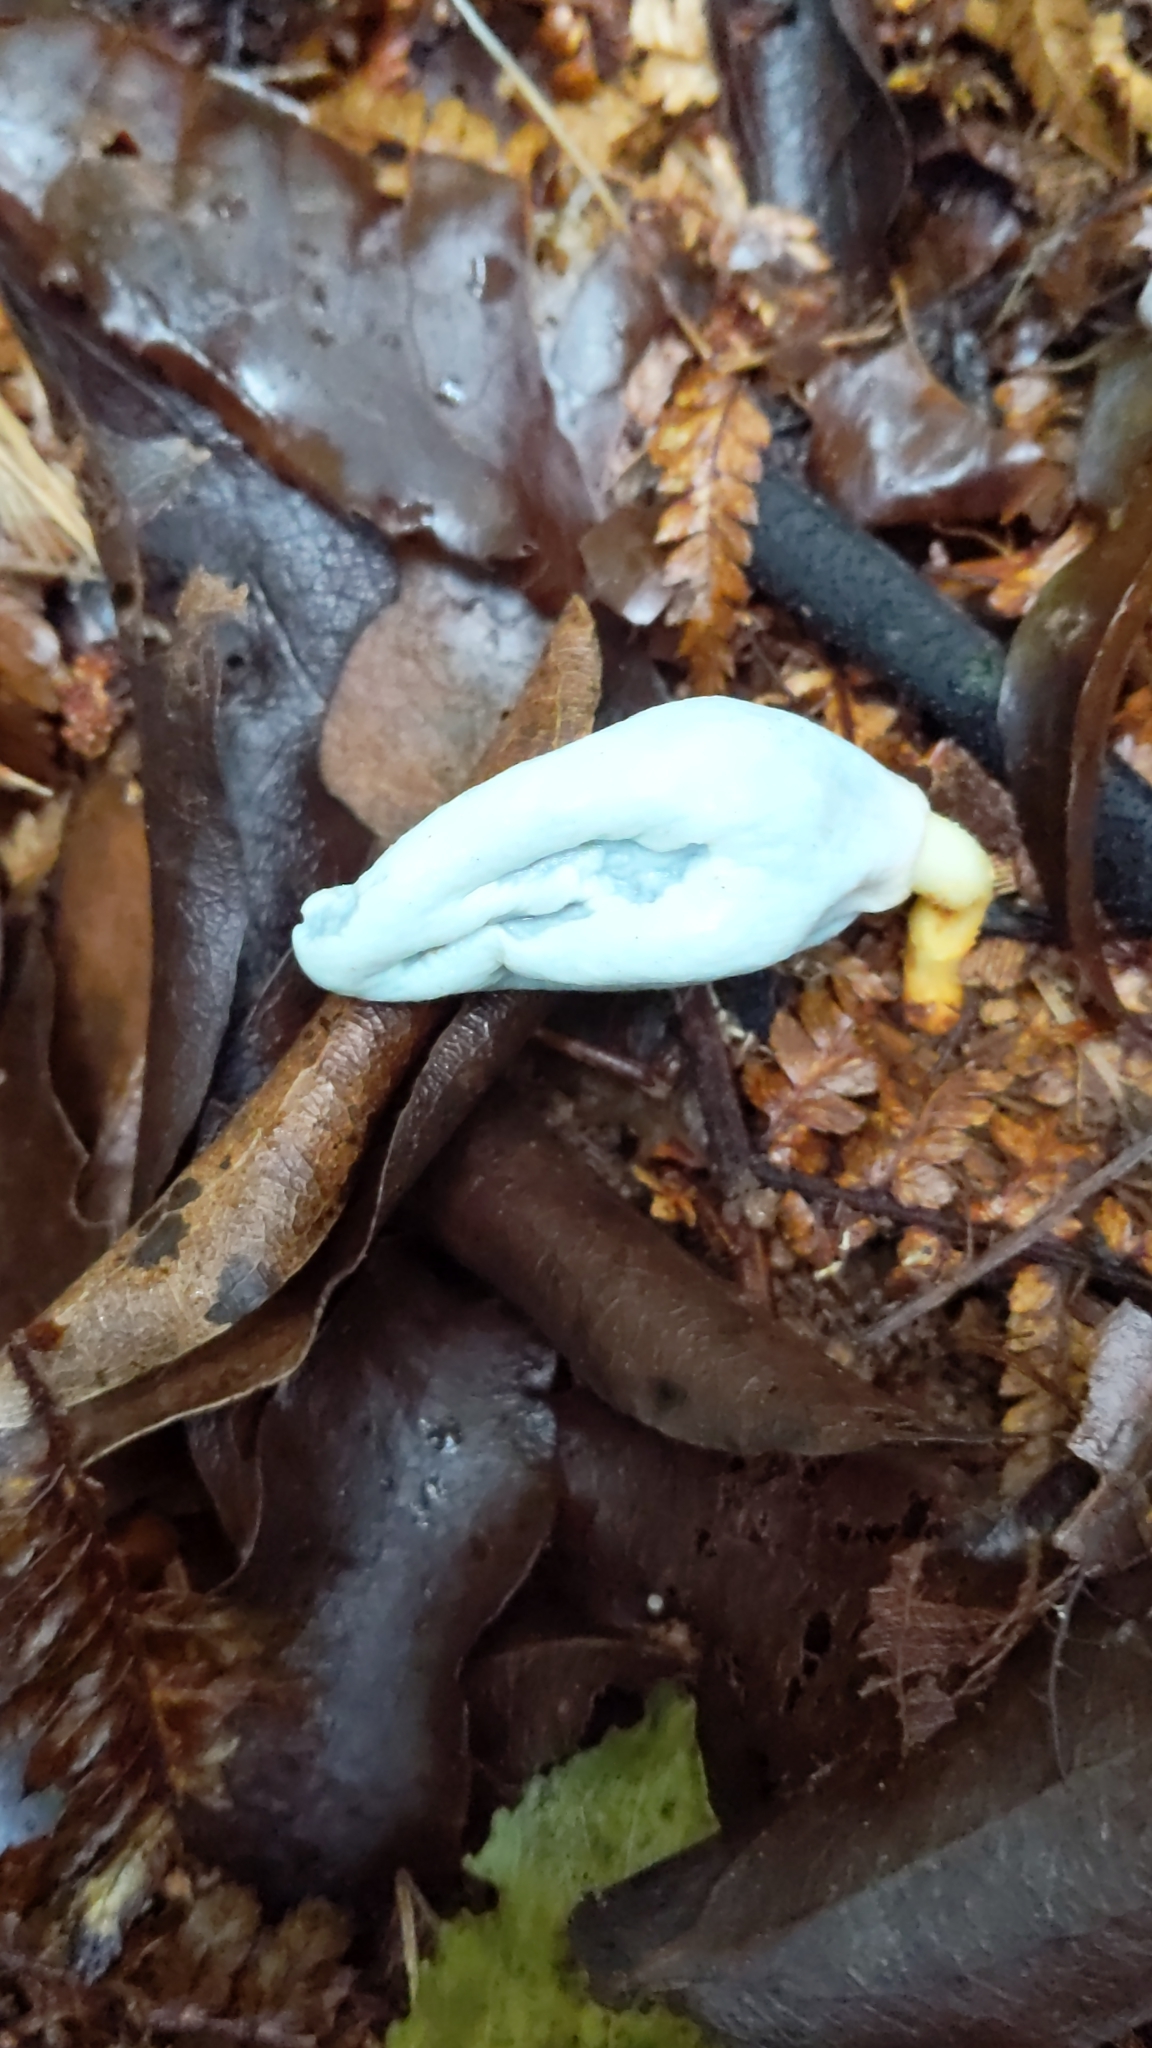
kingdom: Fungi
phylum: Basidiomycota
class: Agaricomycetes
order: Agaricales
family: Agaricaceae
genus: Clavogaster
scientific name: Clavogaster virescens
